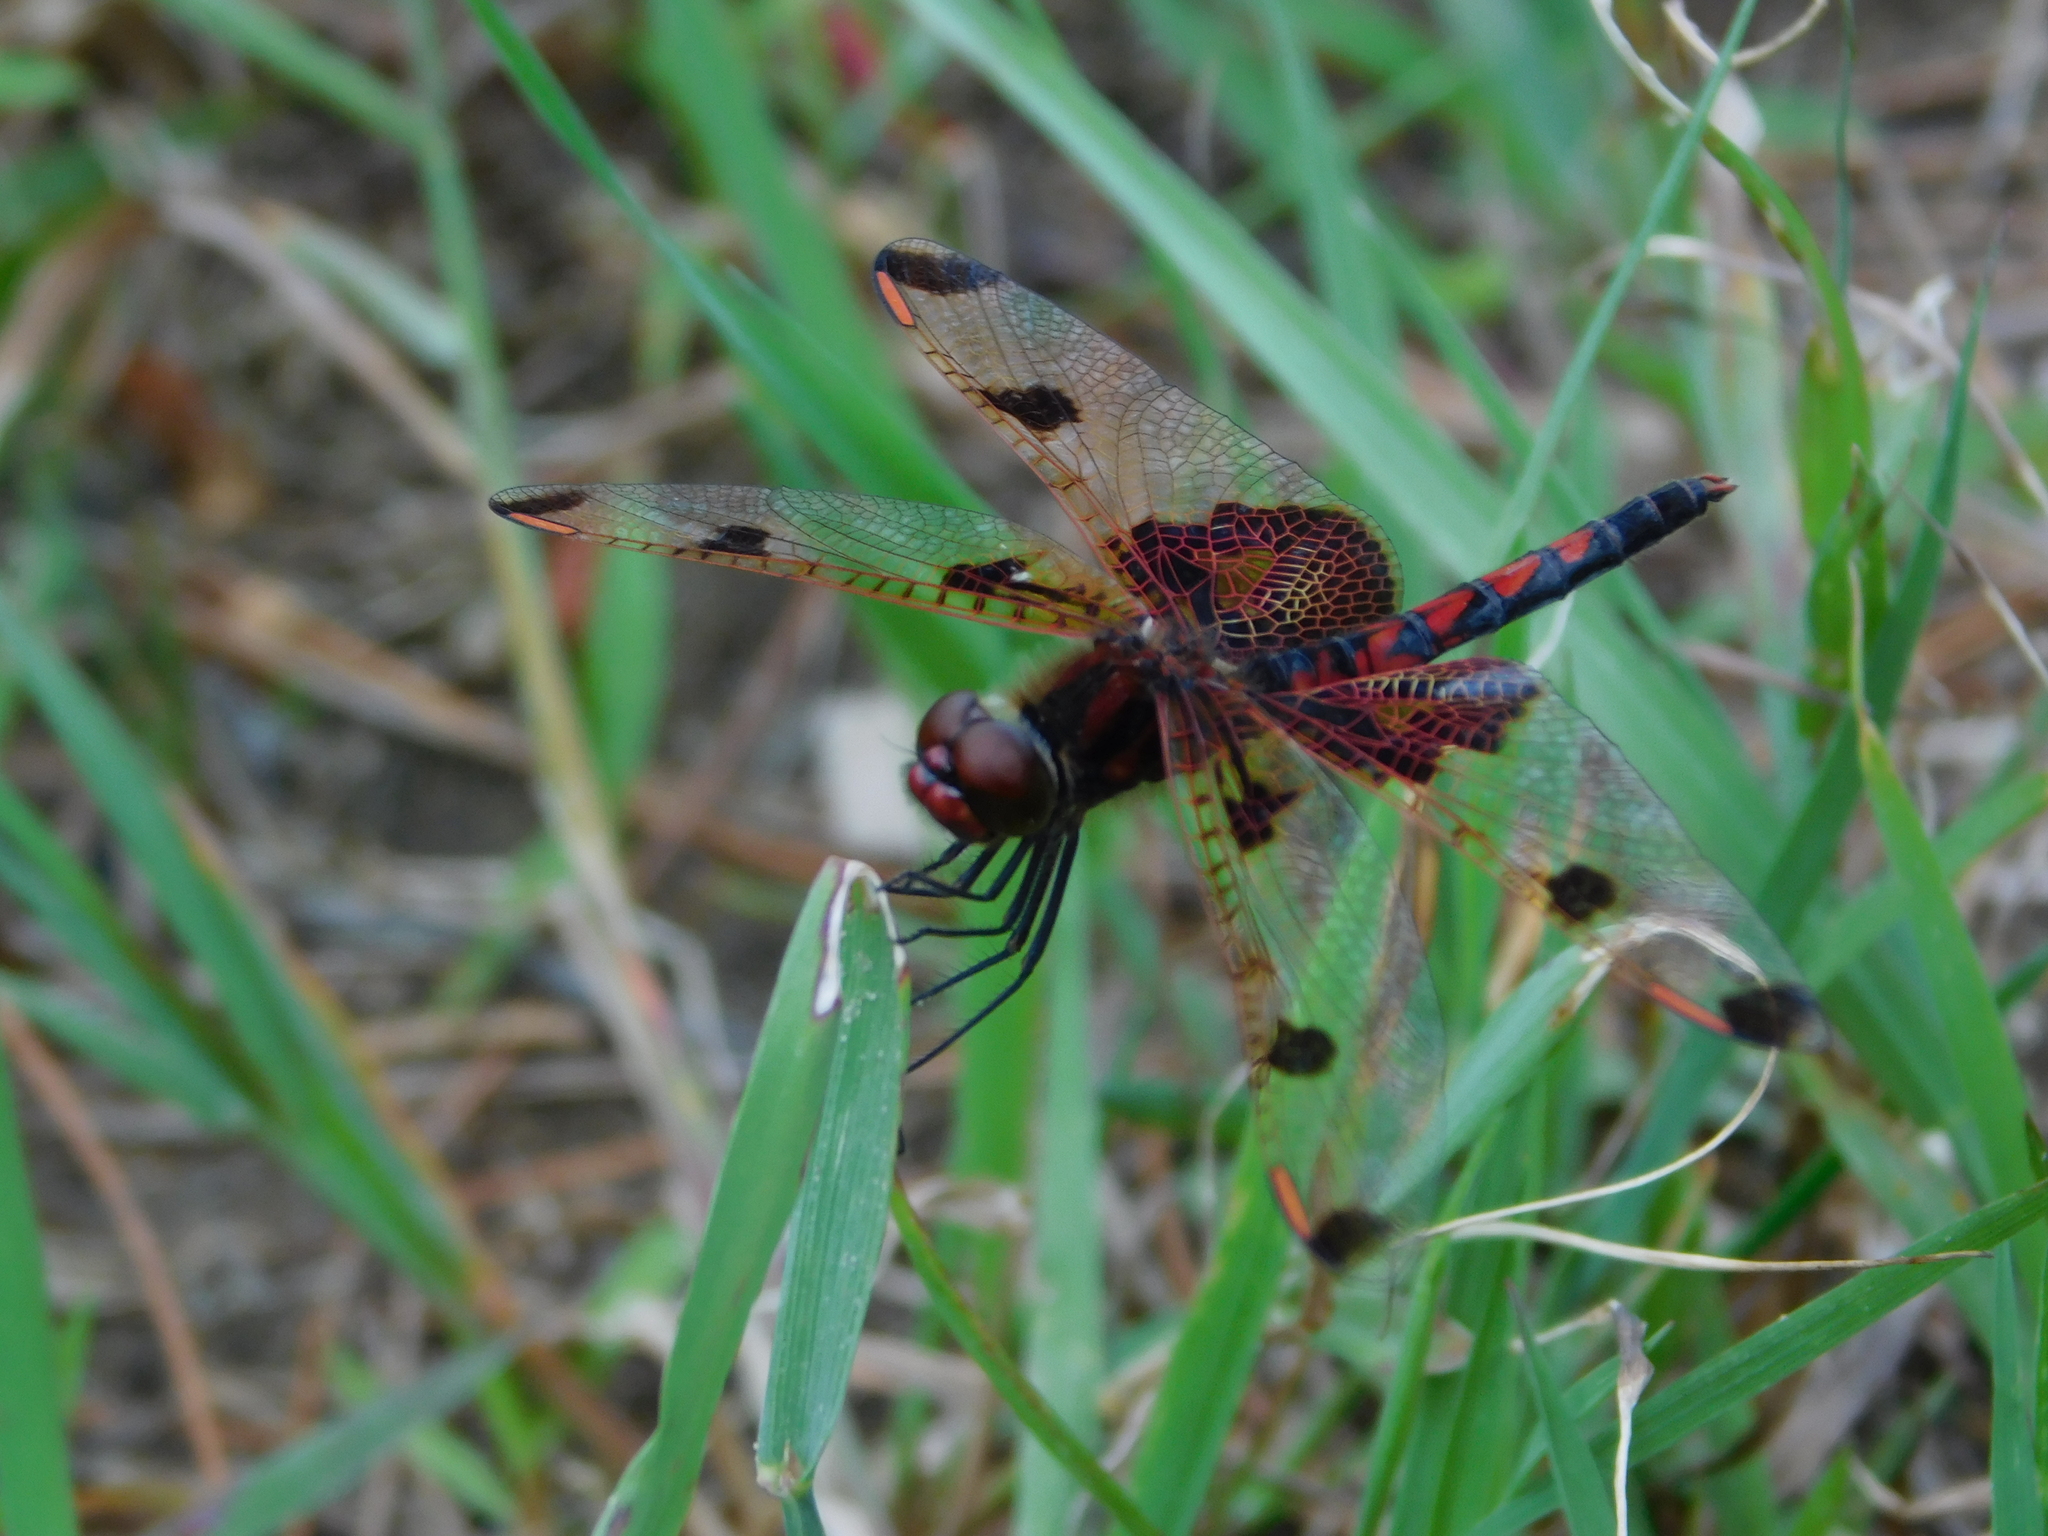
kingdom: Animalia
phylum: Arthropoda
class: Insecta
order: Odonata
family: Libellulidae
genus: Celithemis
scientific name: Celithemis elisa
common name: Calico pennant
